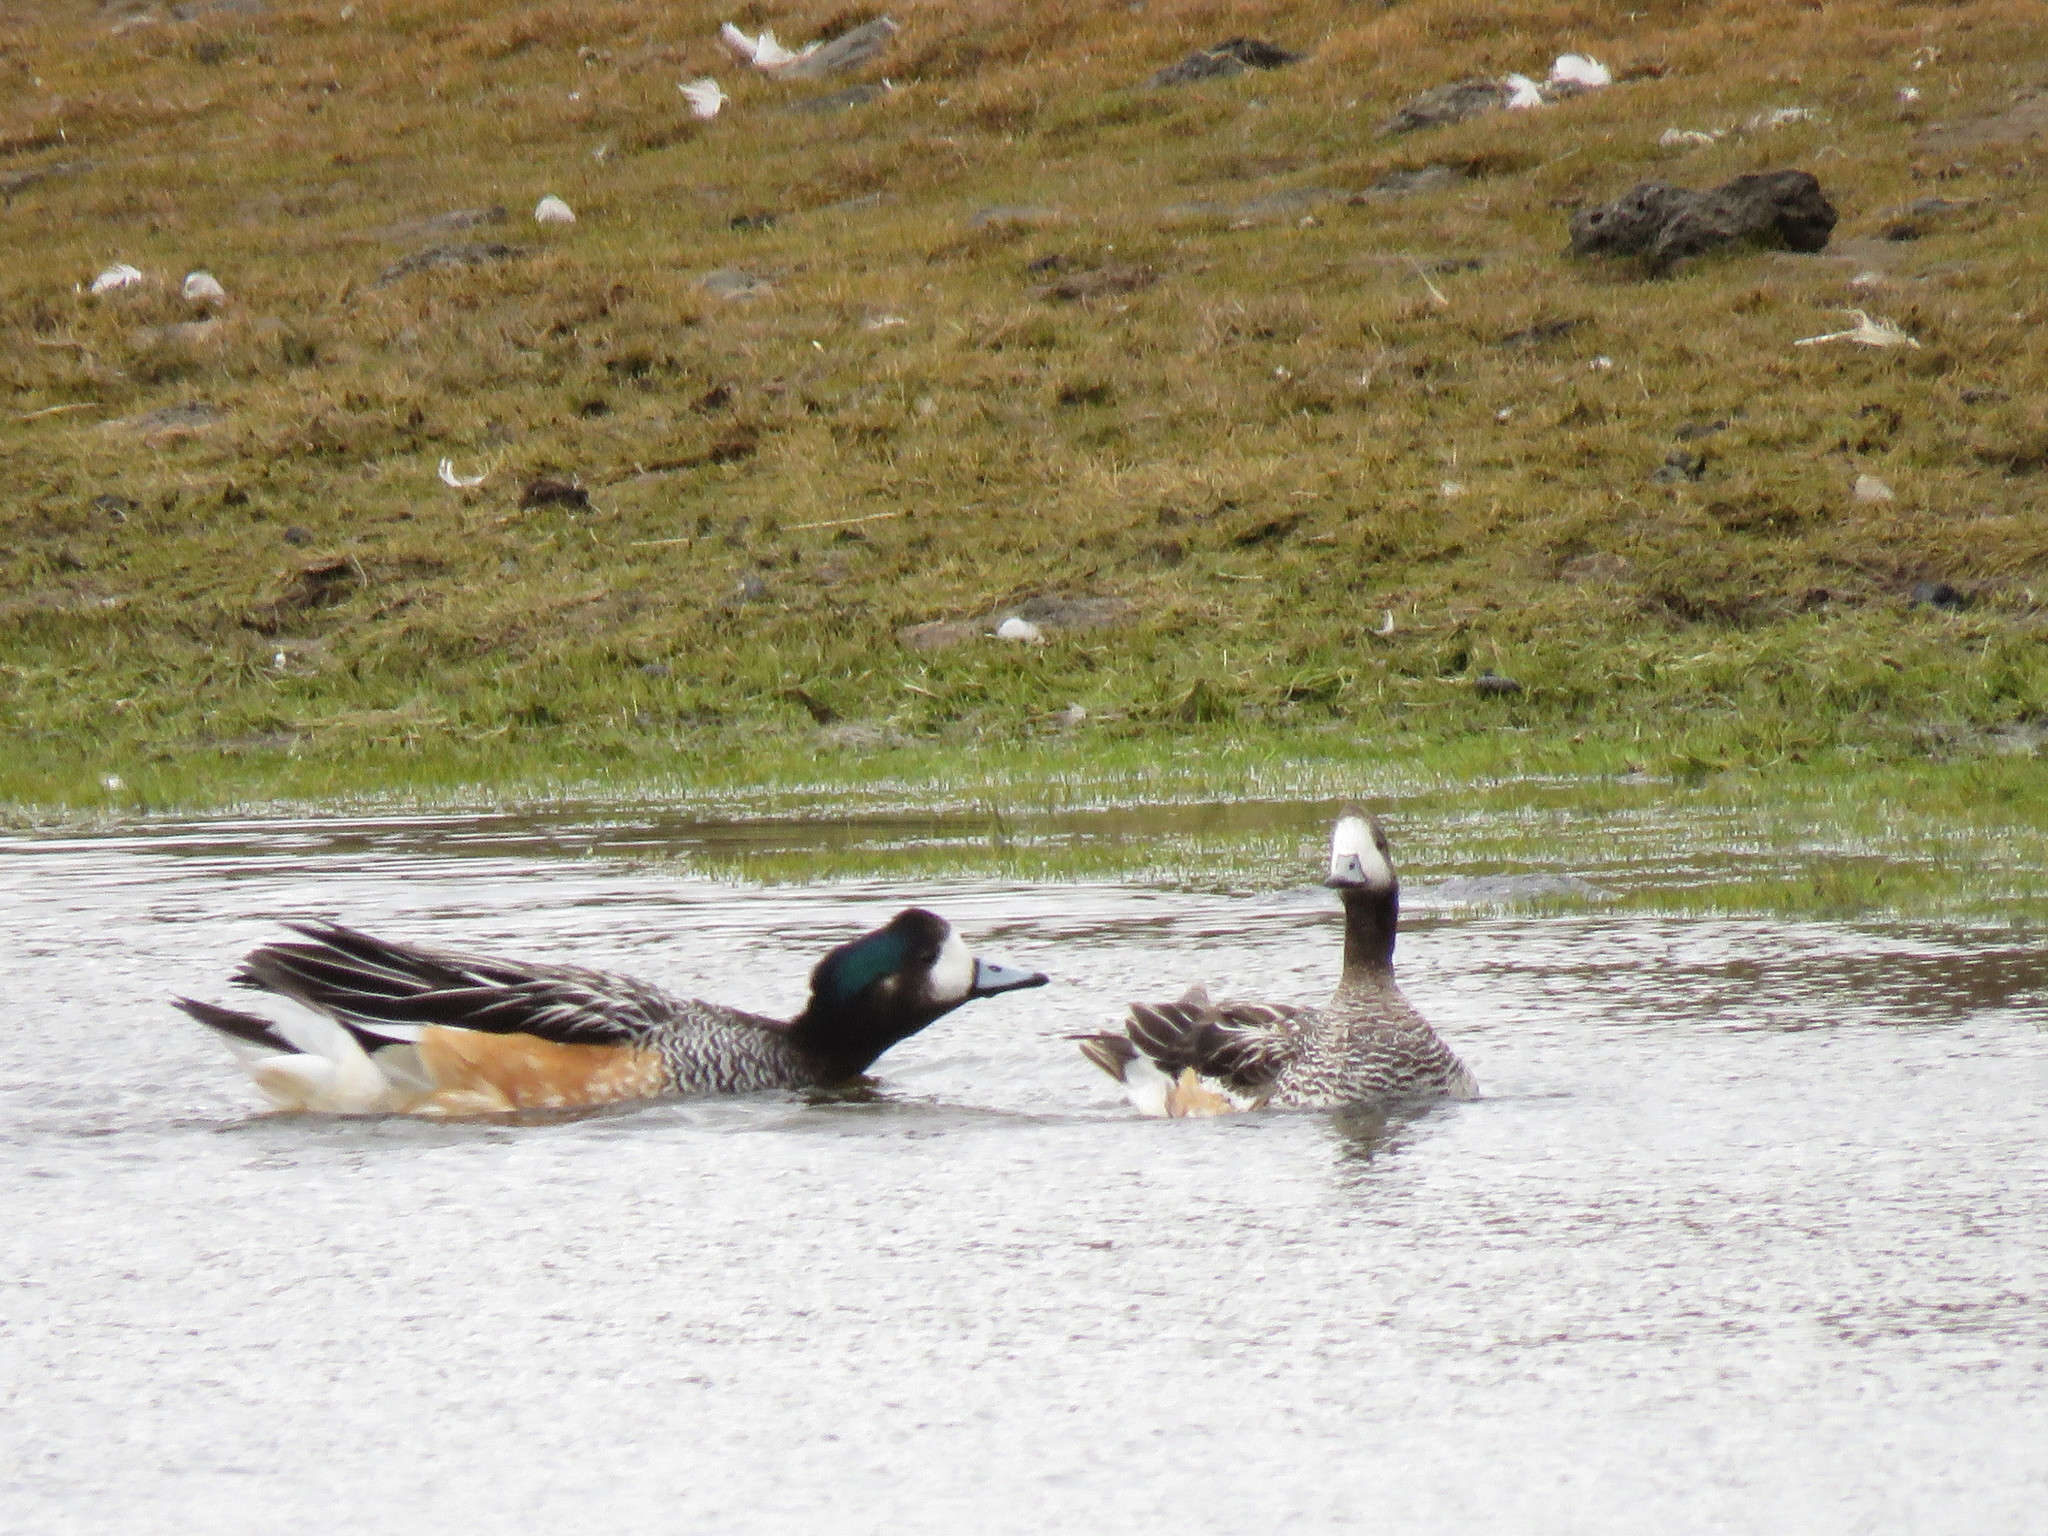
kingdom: Animalia
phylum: Chordata
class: Aves
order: Anseriformes
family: Anatidae
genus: Mareca
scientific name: Mareca sibilatrix
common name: Chiloe wigeon
